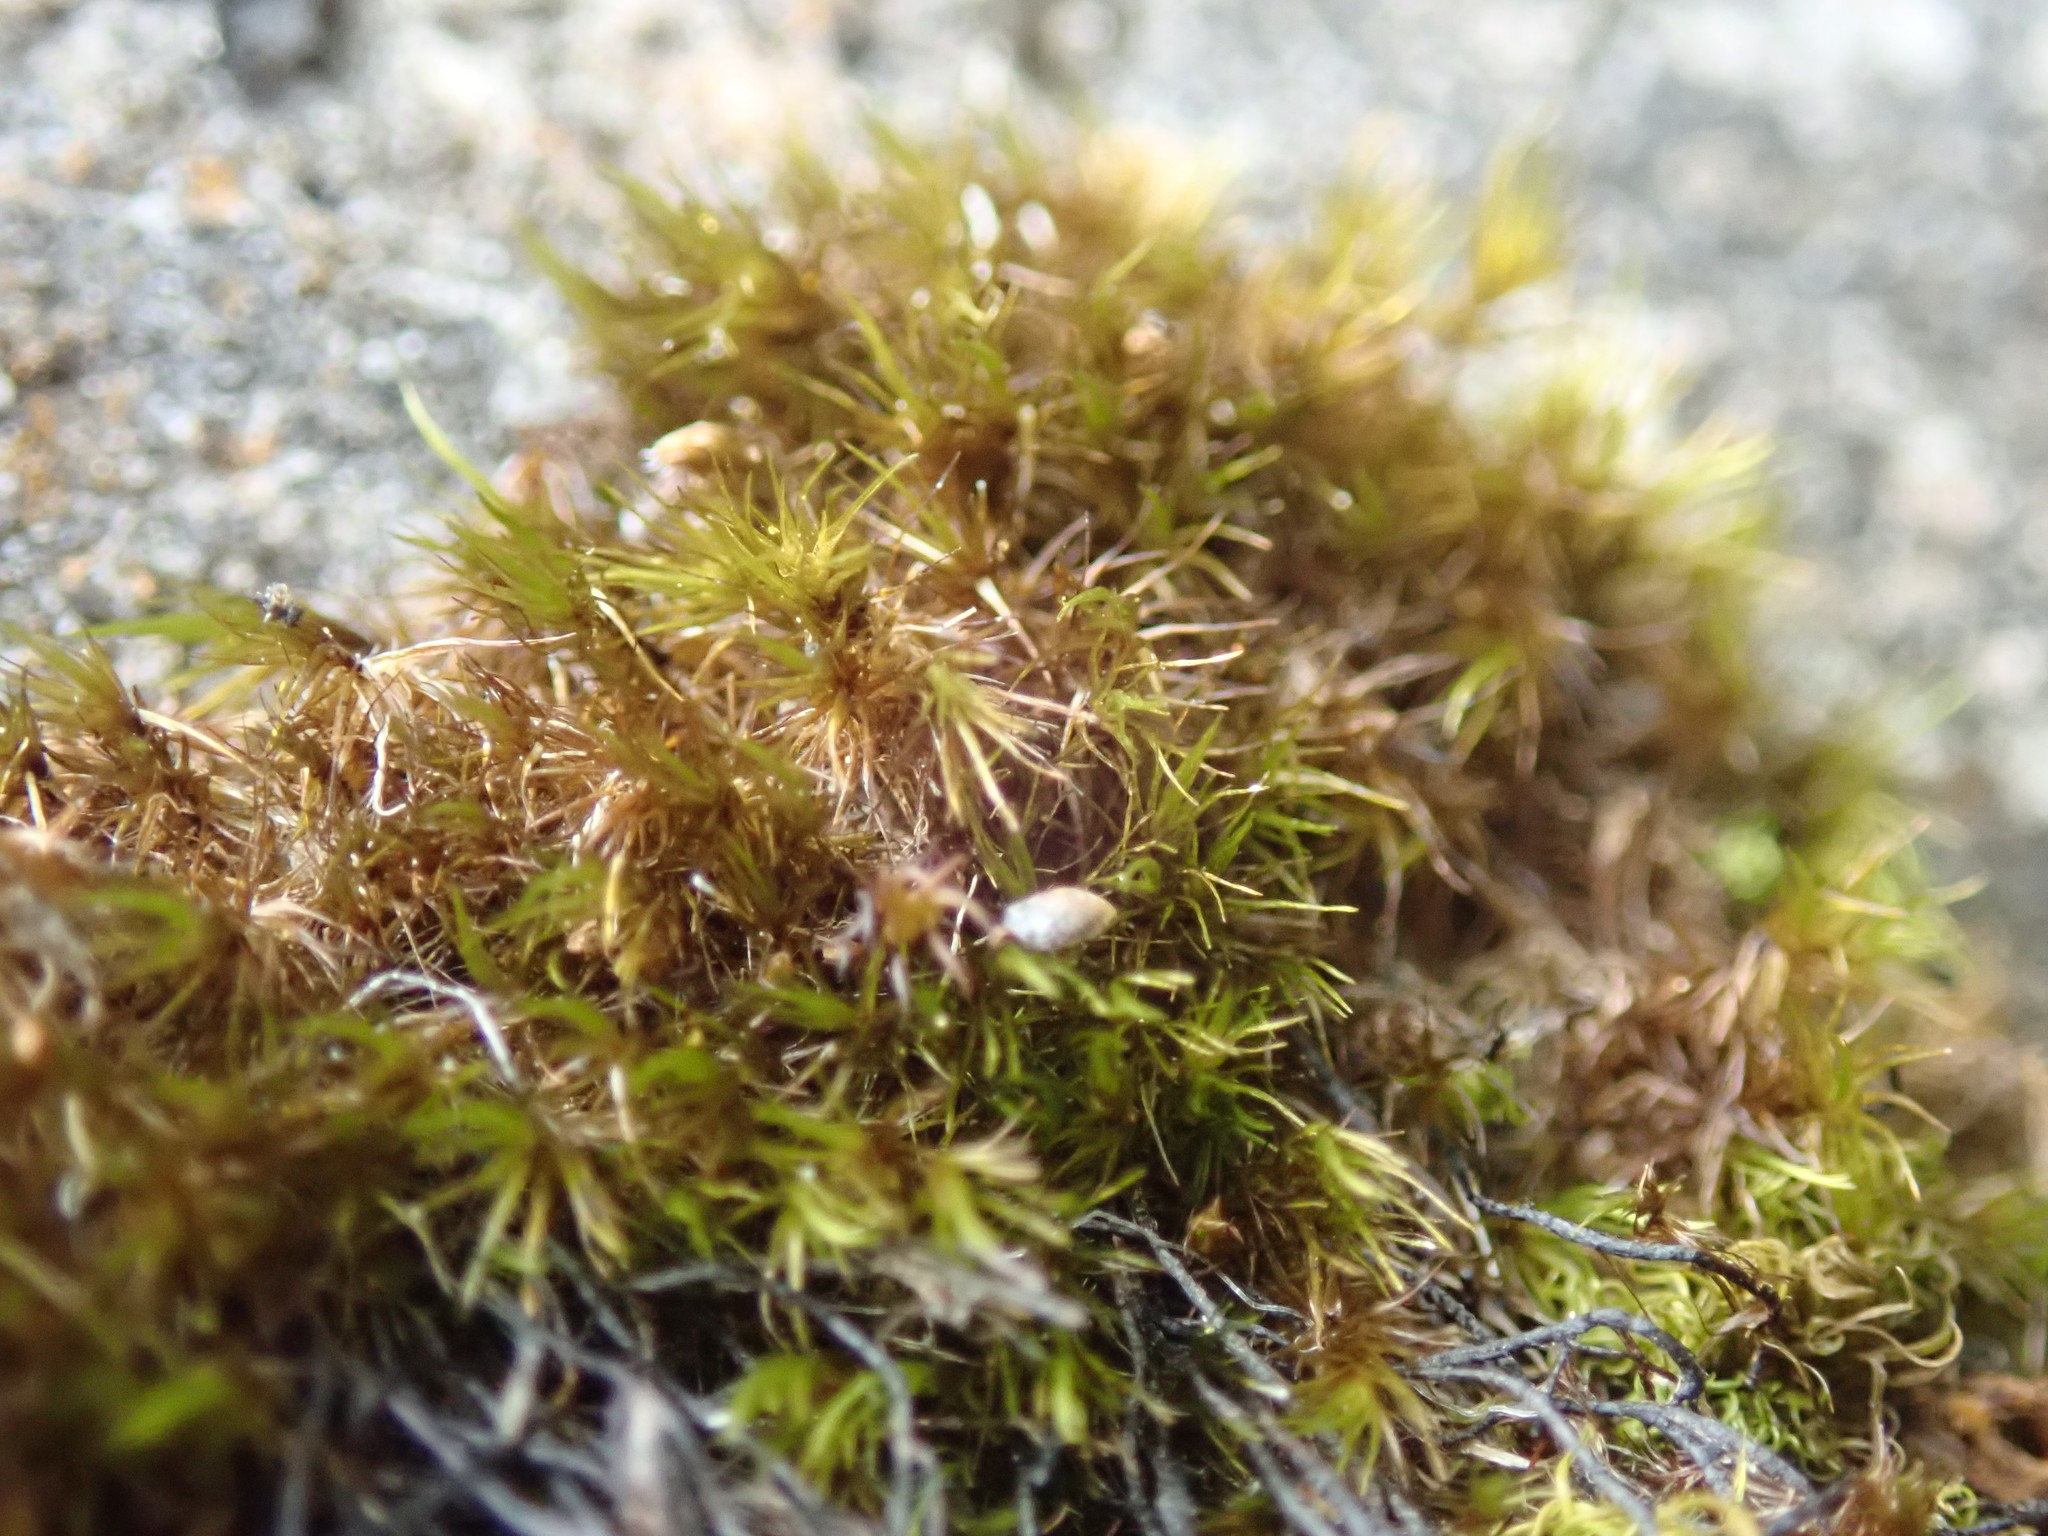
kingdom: Plantae
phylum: Bryophyta
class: Bryopsida
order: Dicranales
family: Leucobryaceae
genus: Campylopus
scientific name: Campylopus atrovirens
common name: Bristly swan-neck moss
